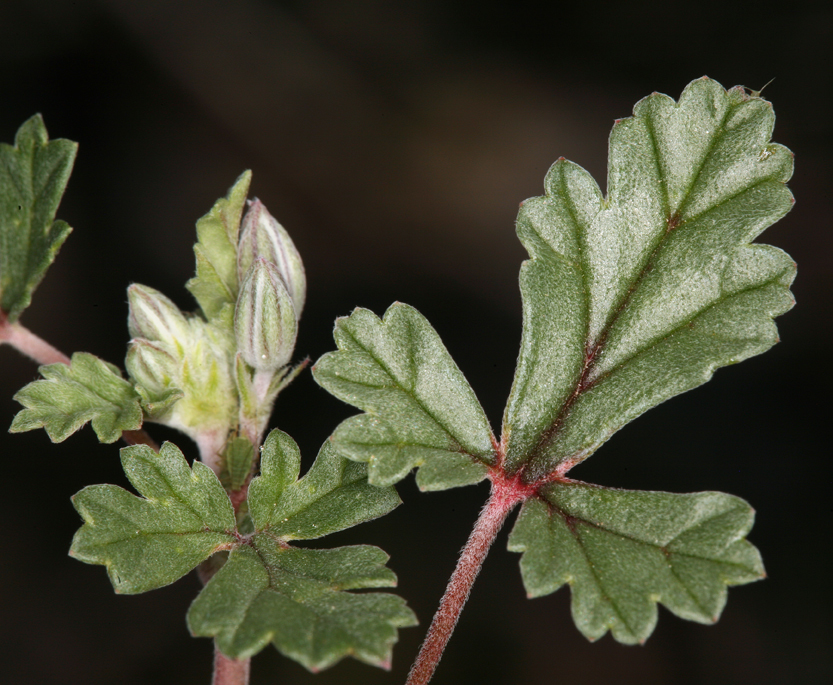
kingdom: Plantae
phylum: Tracheophyta
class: Magnoliopsida
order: Geraniales
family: Geraniaceae
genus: Erodium
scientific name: Erodium texanum
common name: Texas stork's-bill
